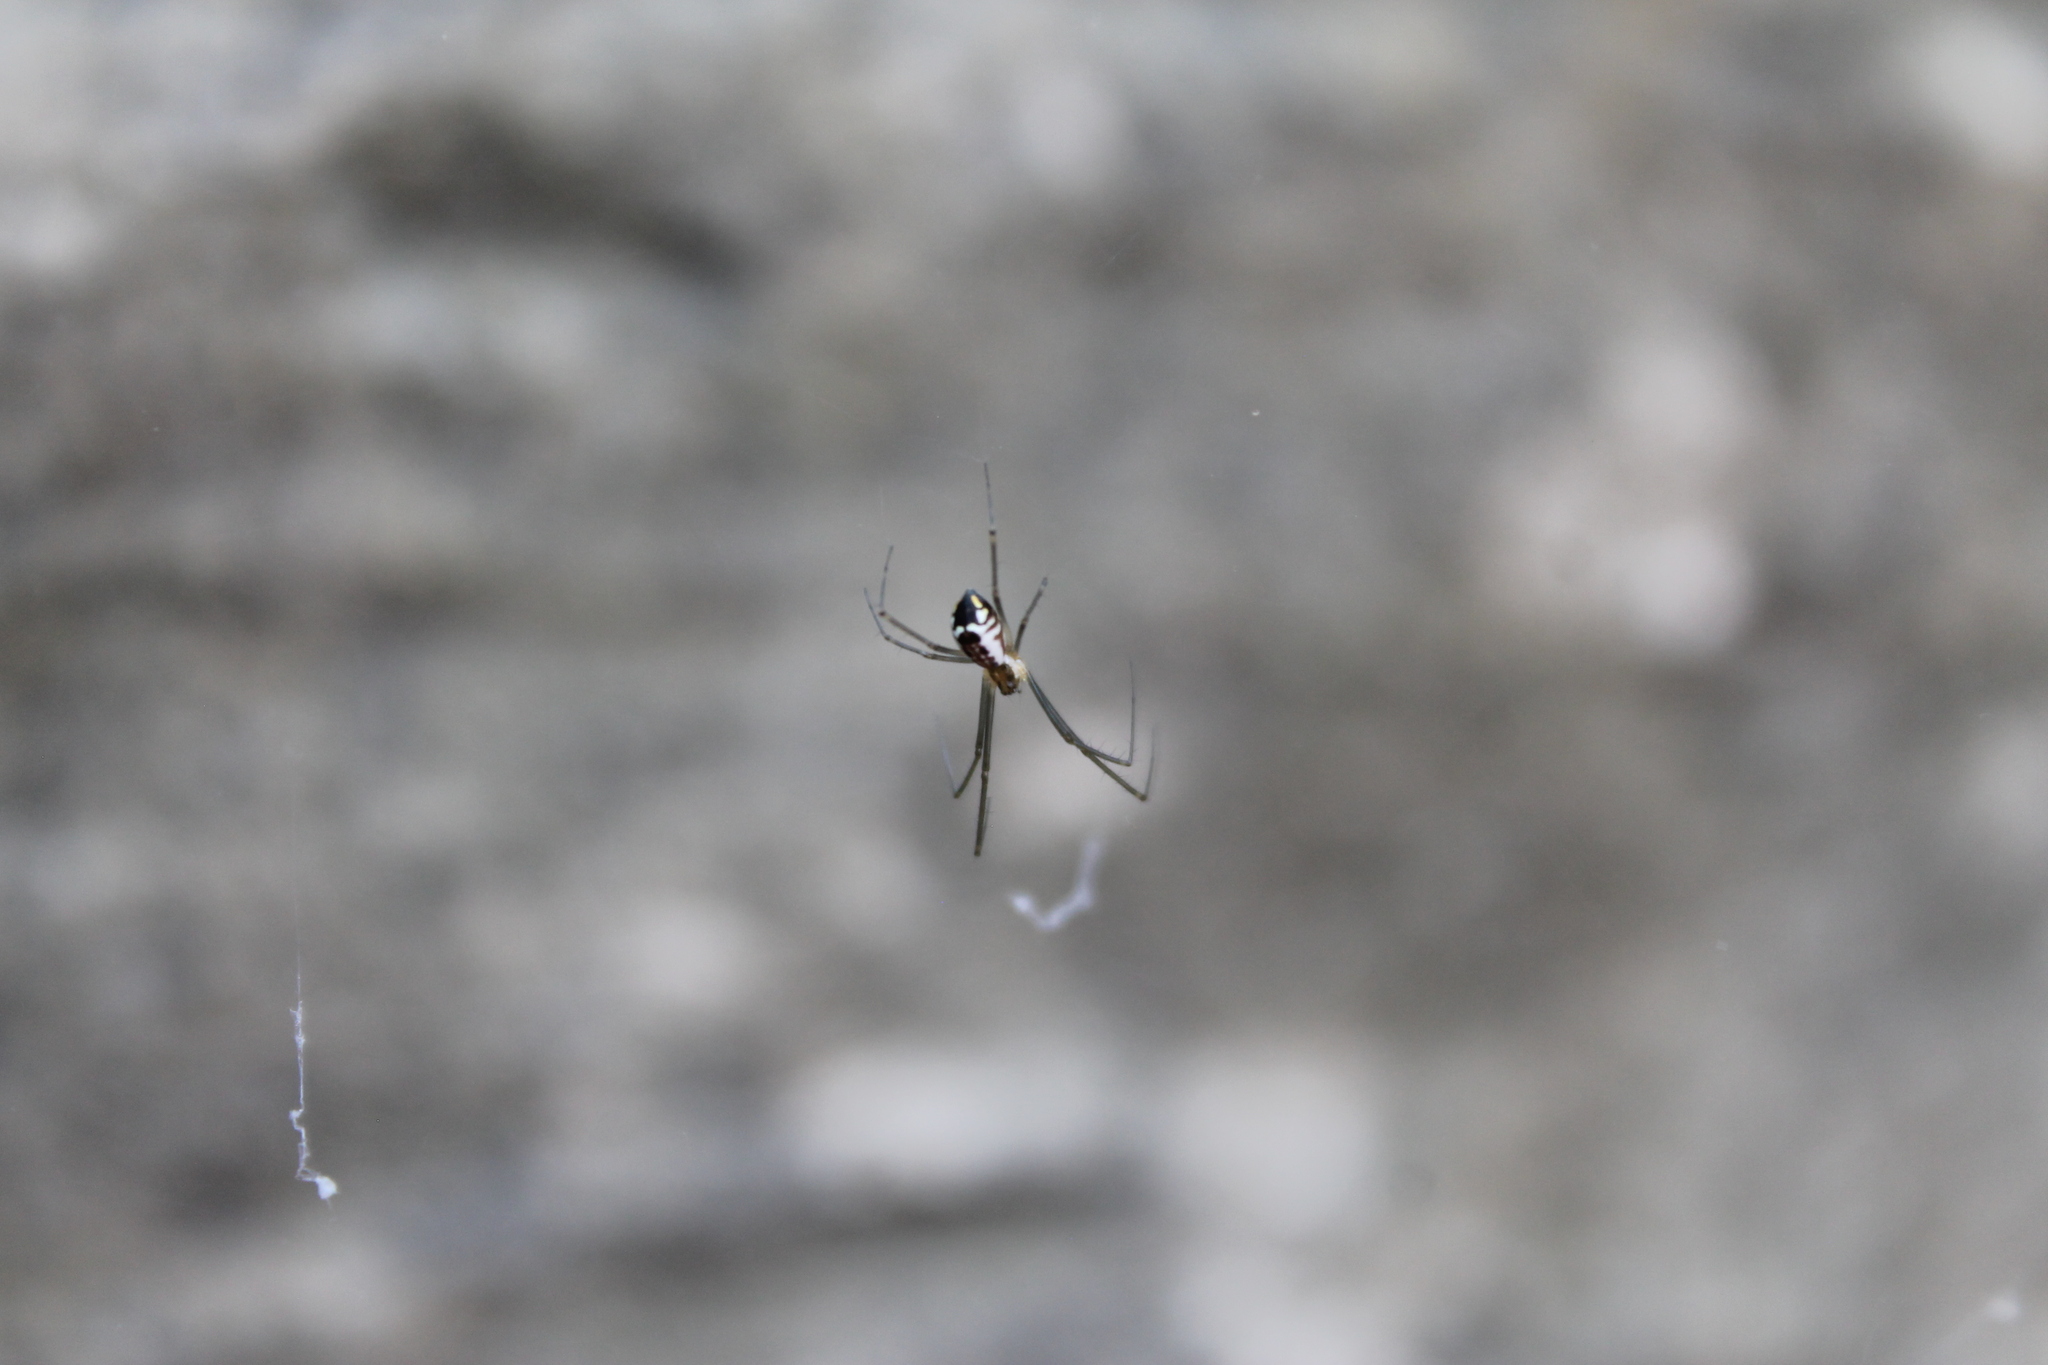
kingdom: Animalia
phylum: Arthropoda
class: Arachnida
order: Araneae
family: Linyphiidae
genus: Neriene
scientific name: Neriene radiata
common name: Filmy dome spider
